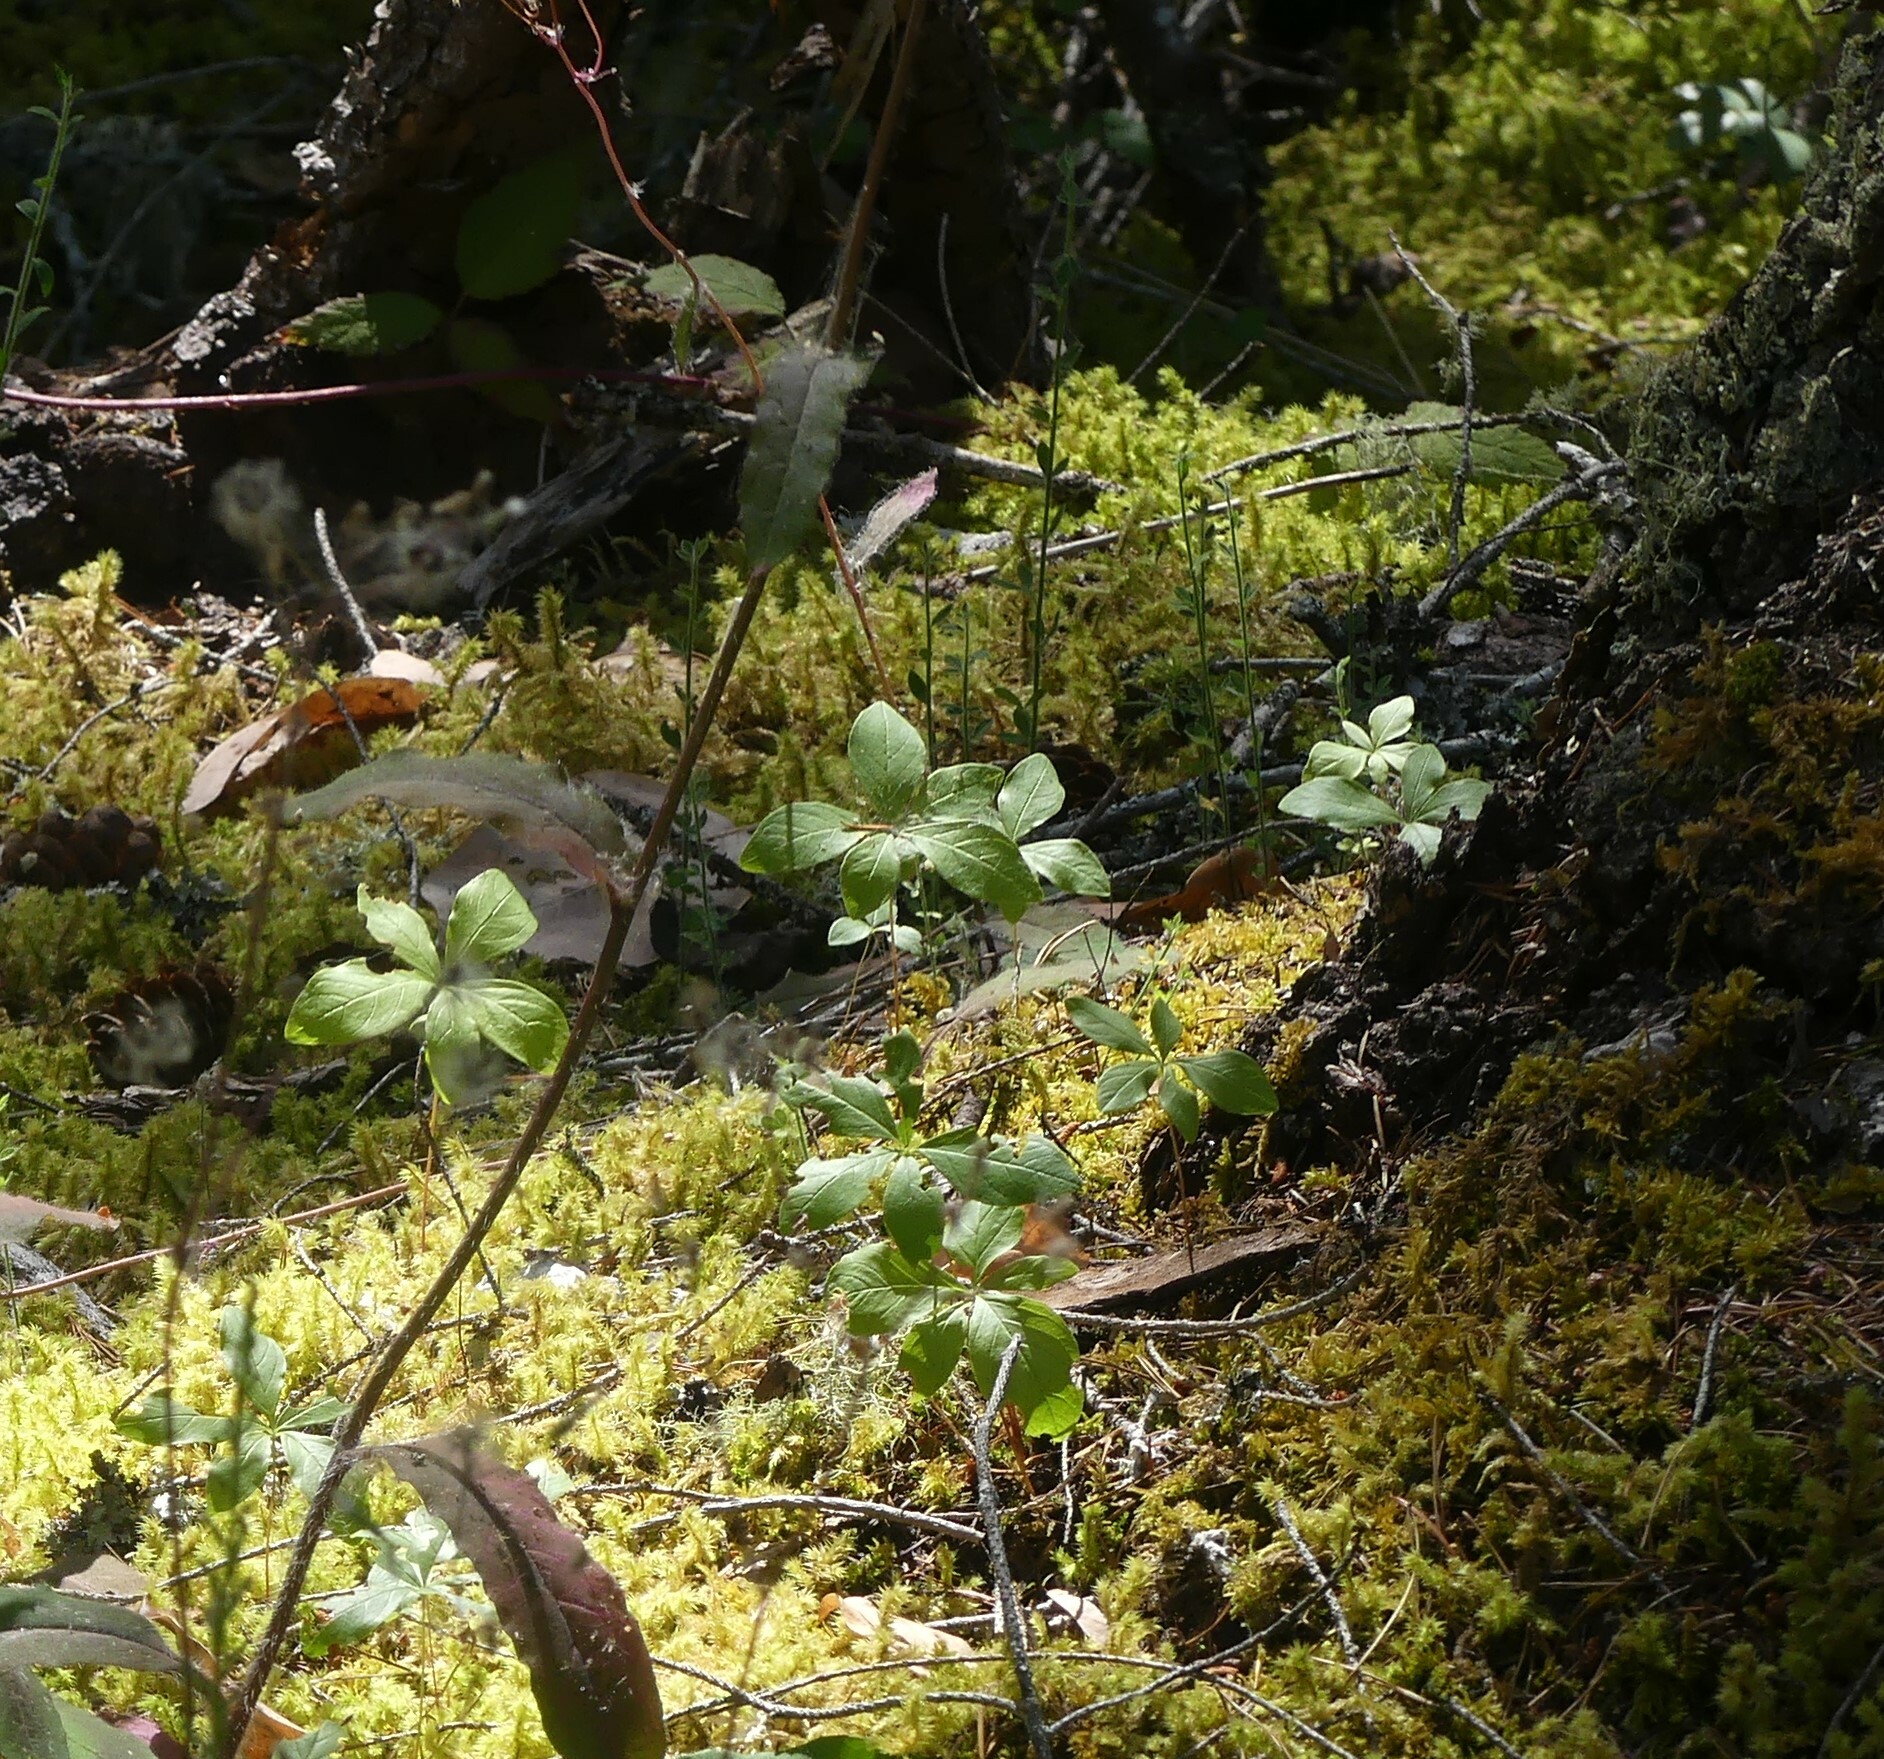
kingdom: Plantae
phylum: Tracheophyta
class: Magnoliopsida
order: Ericales
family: Primulaceae
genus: Lysimachia
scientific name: Lysimachia latifolia
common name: Pacific starflower
